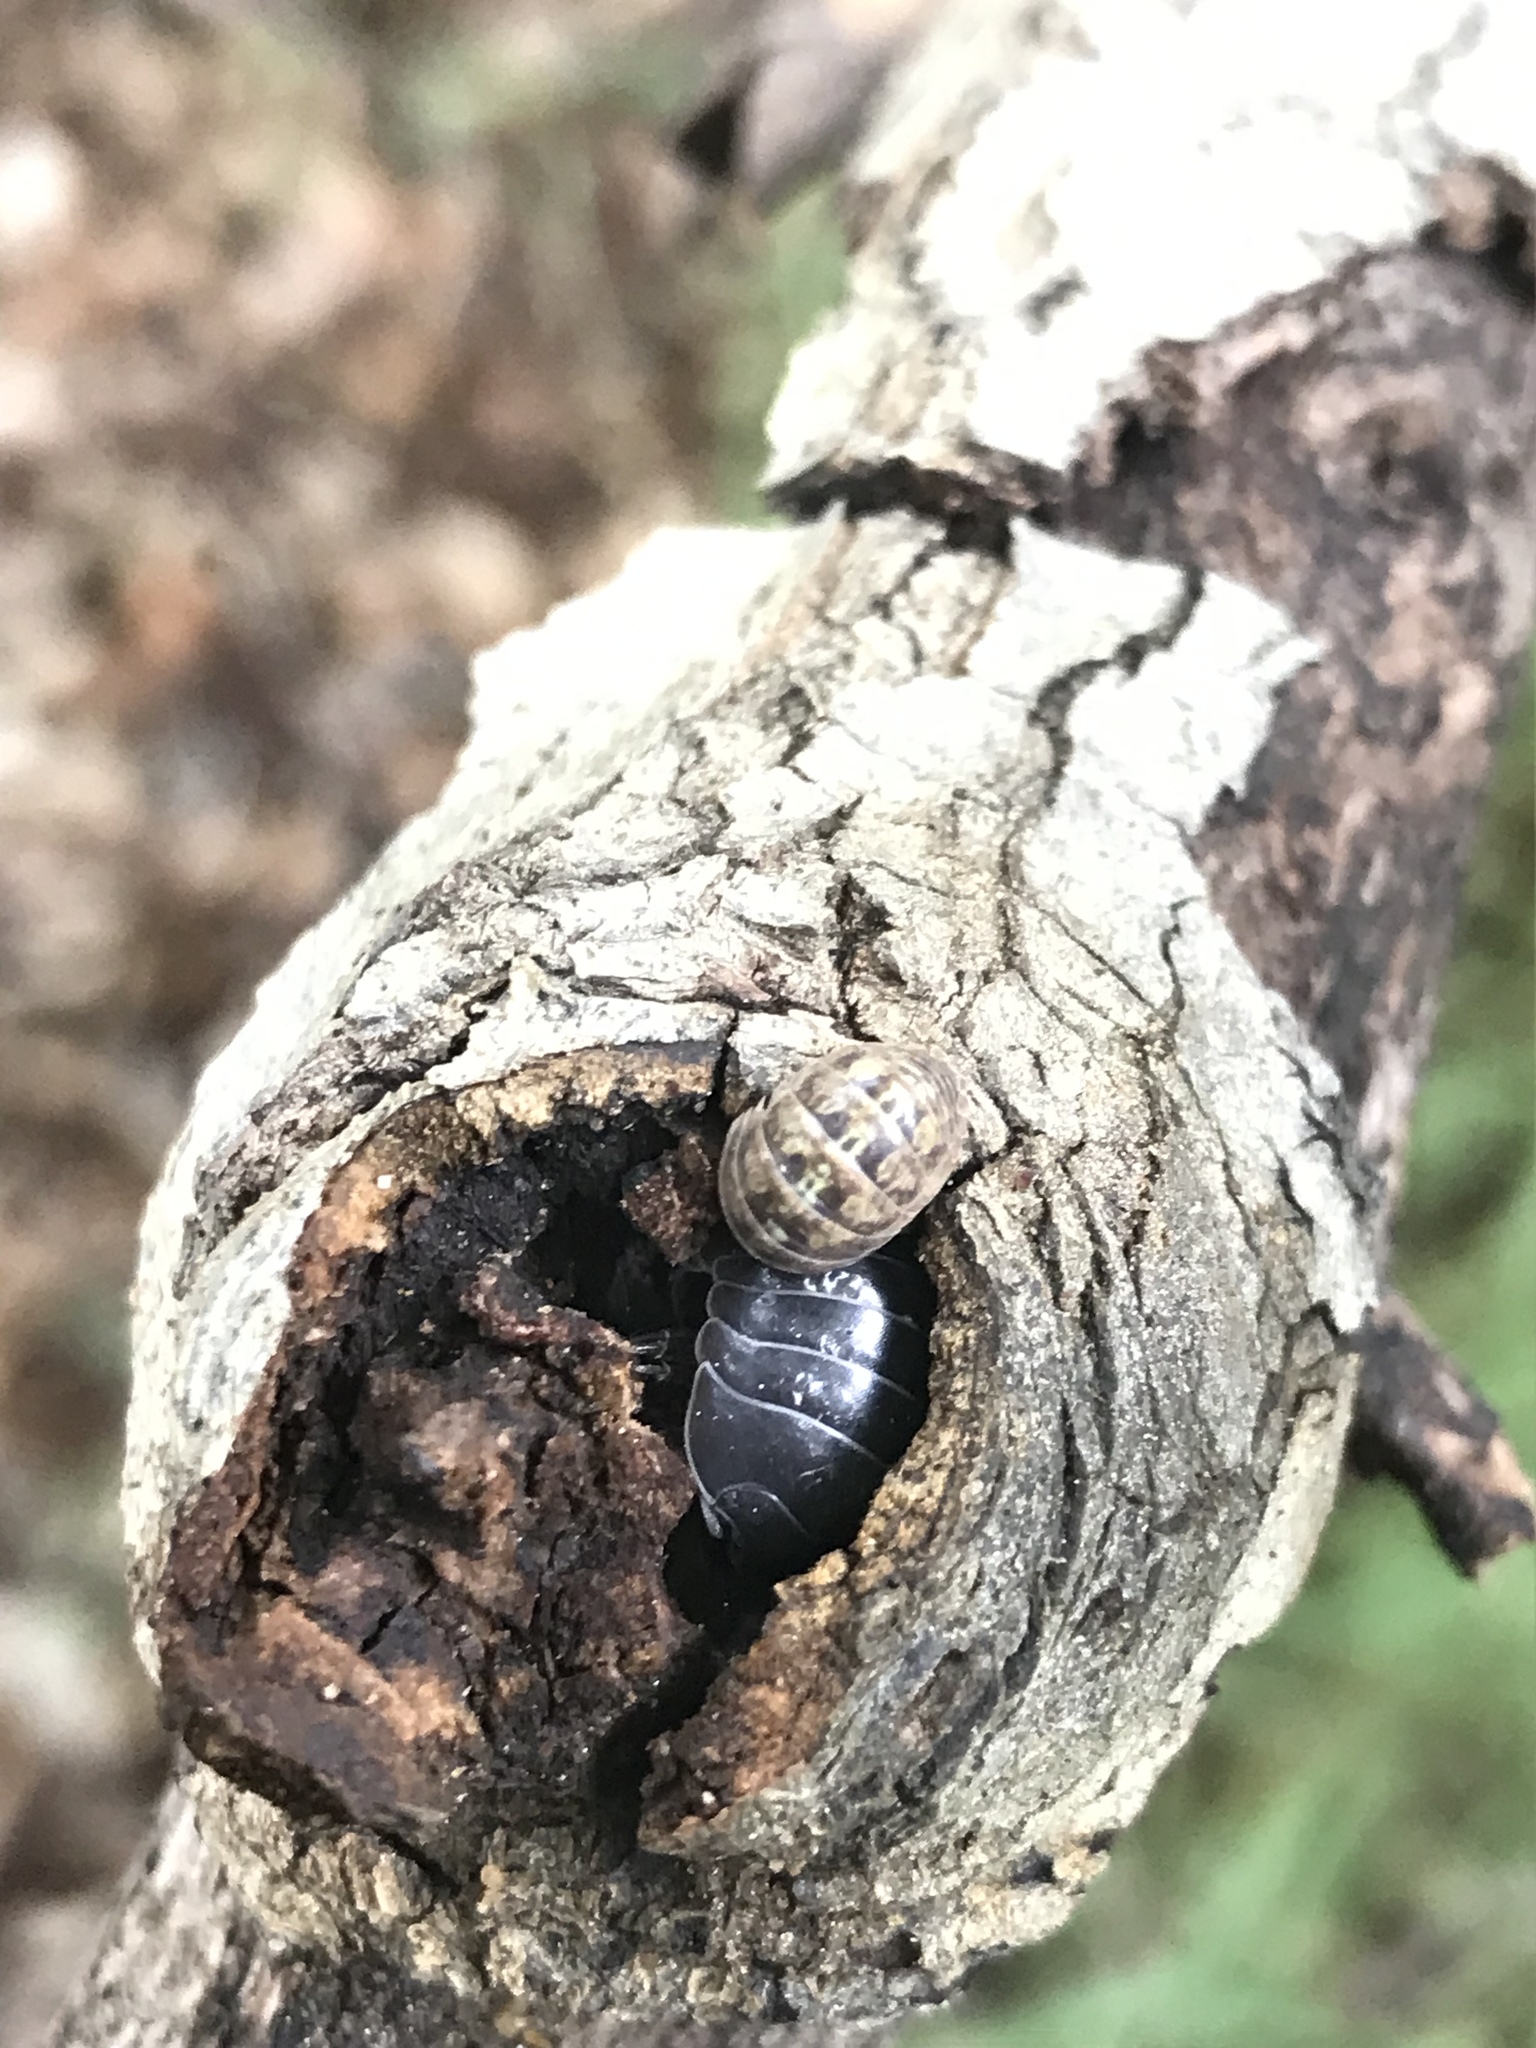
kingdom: Animalia
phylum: Arthropoda
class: Malacostraca
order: Isopoda
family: Armadillidiidae
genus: Armadillidium
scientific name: Armadillidium vulgare
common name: Common pill woodlouse
